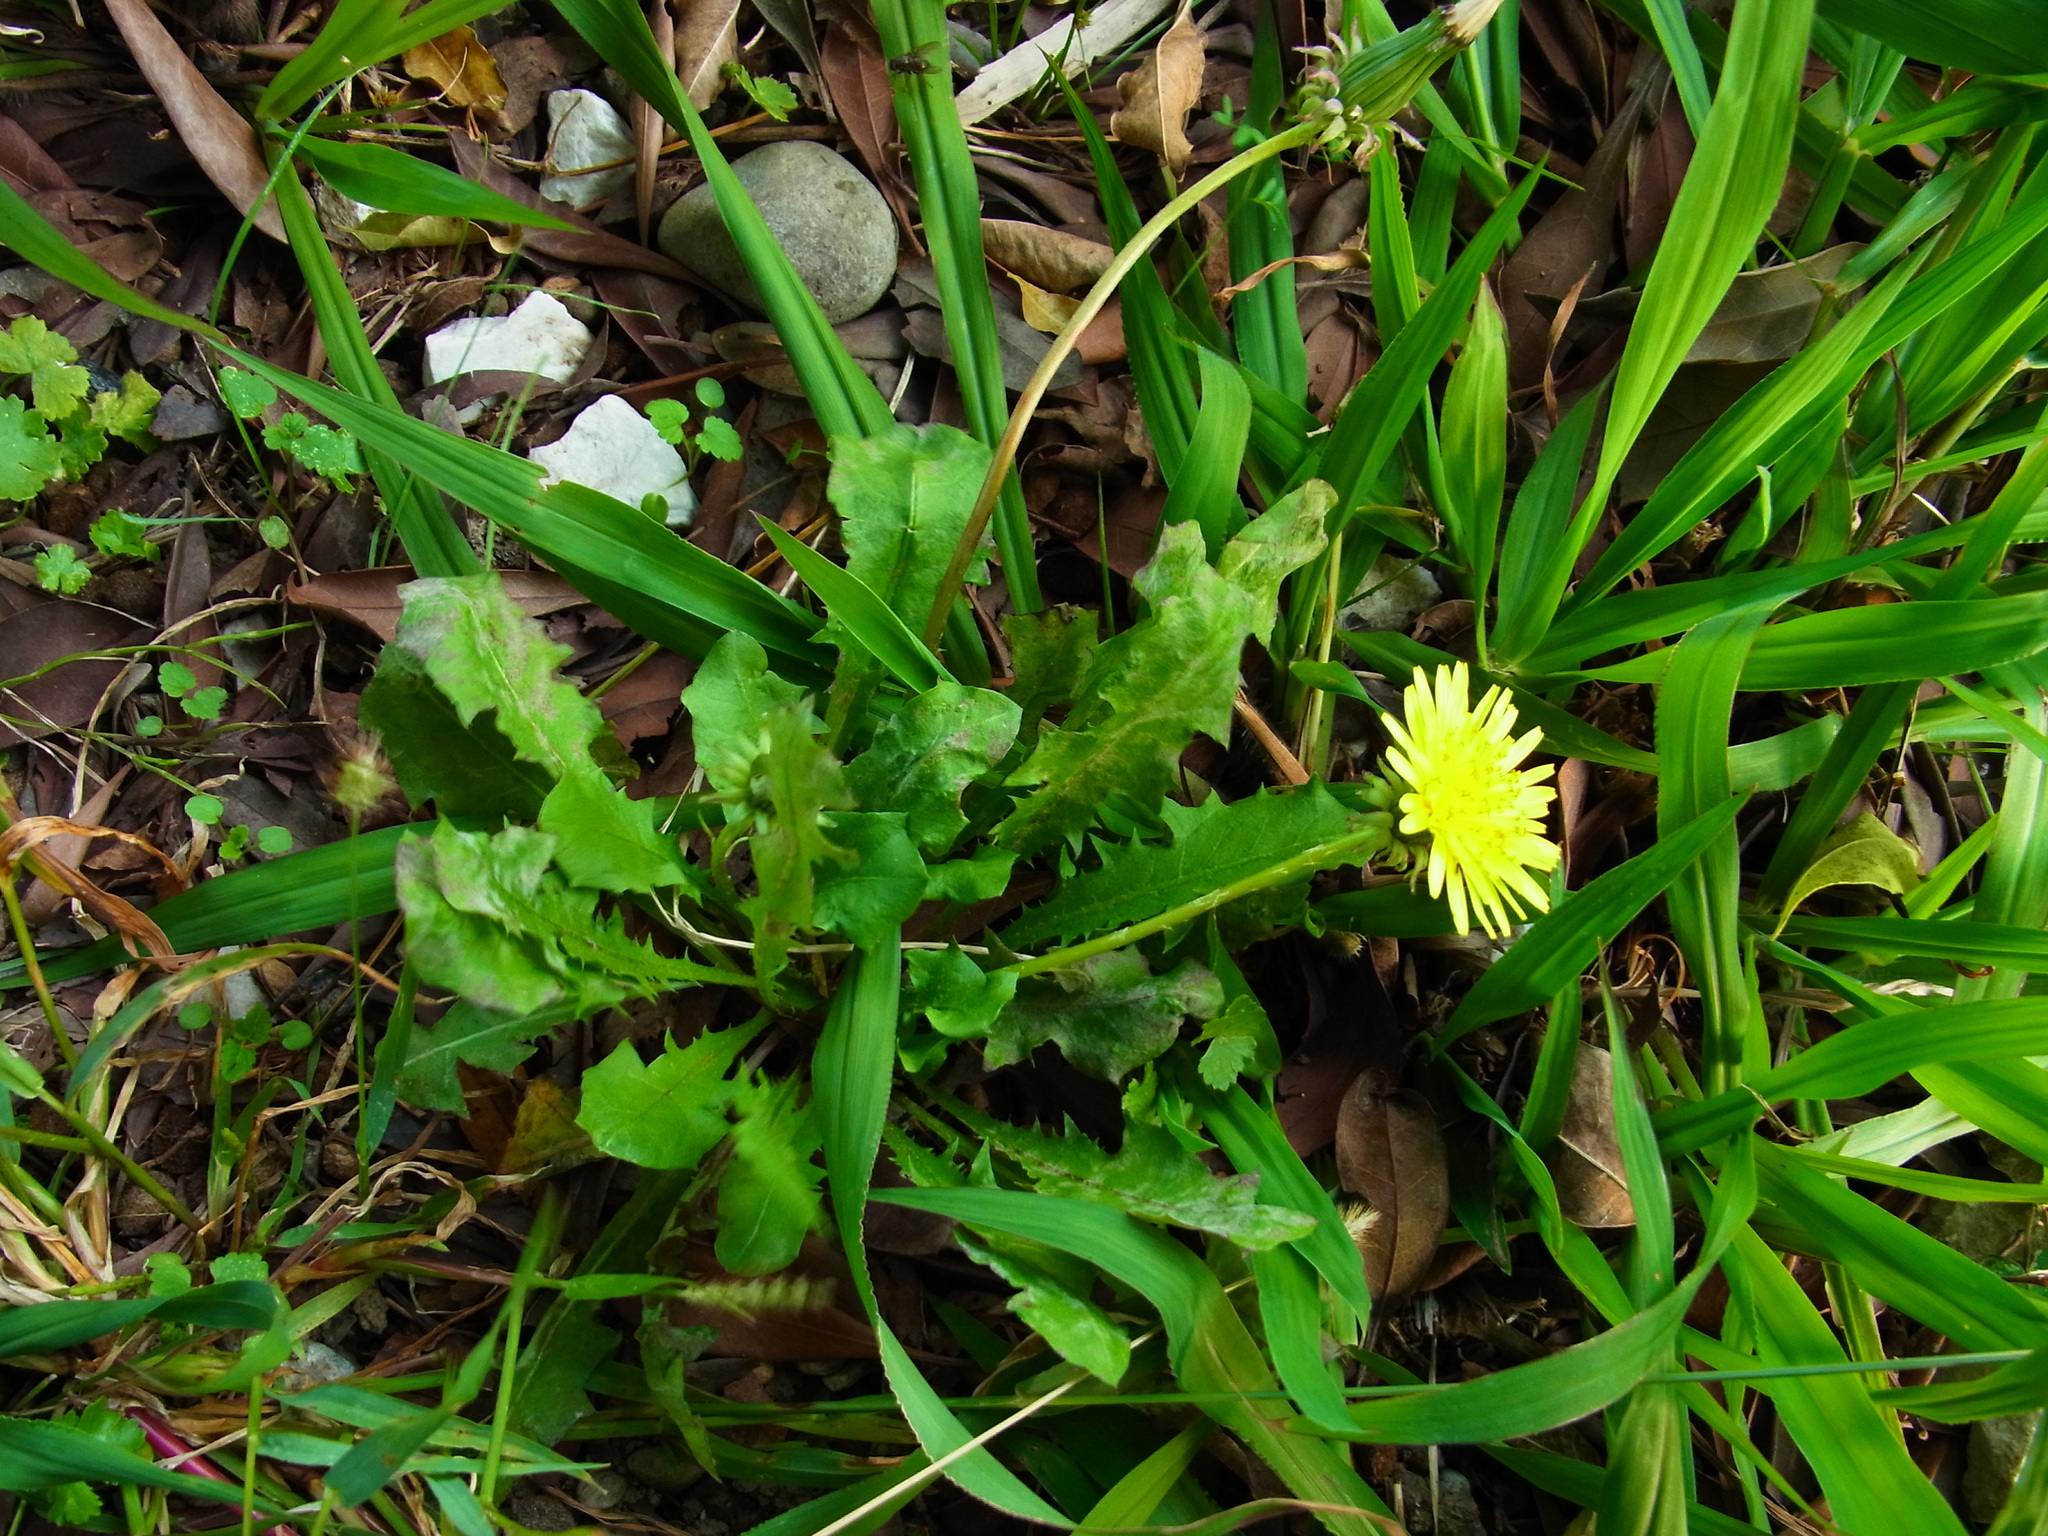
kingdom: Plantae
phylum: Tracheophyta
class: Magnoliopsida
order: Asterales
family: Asteraceae
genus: Taraxacum
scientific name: Taraxacum officinale
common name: Common dandelion
